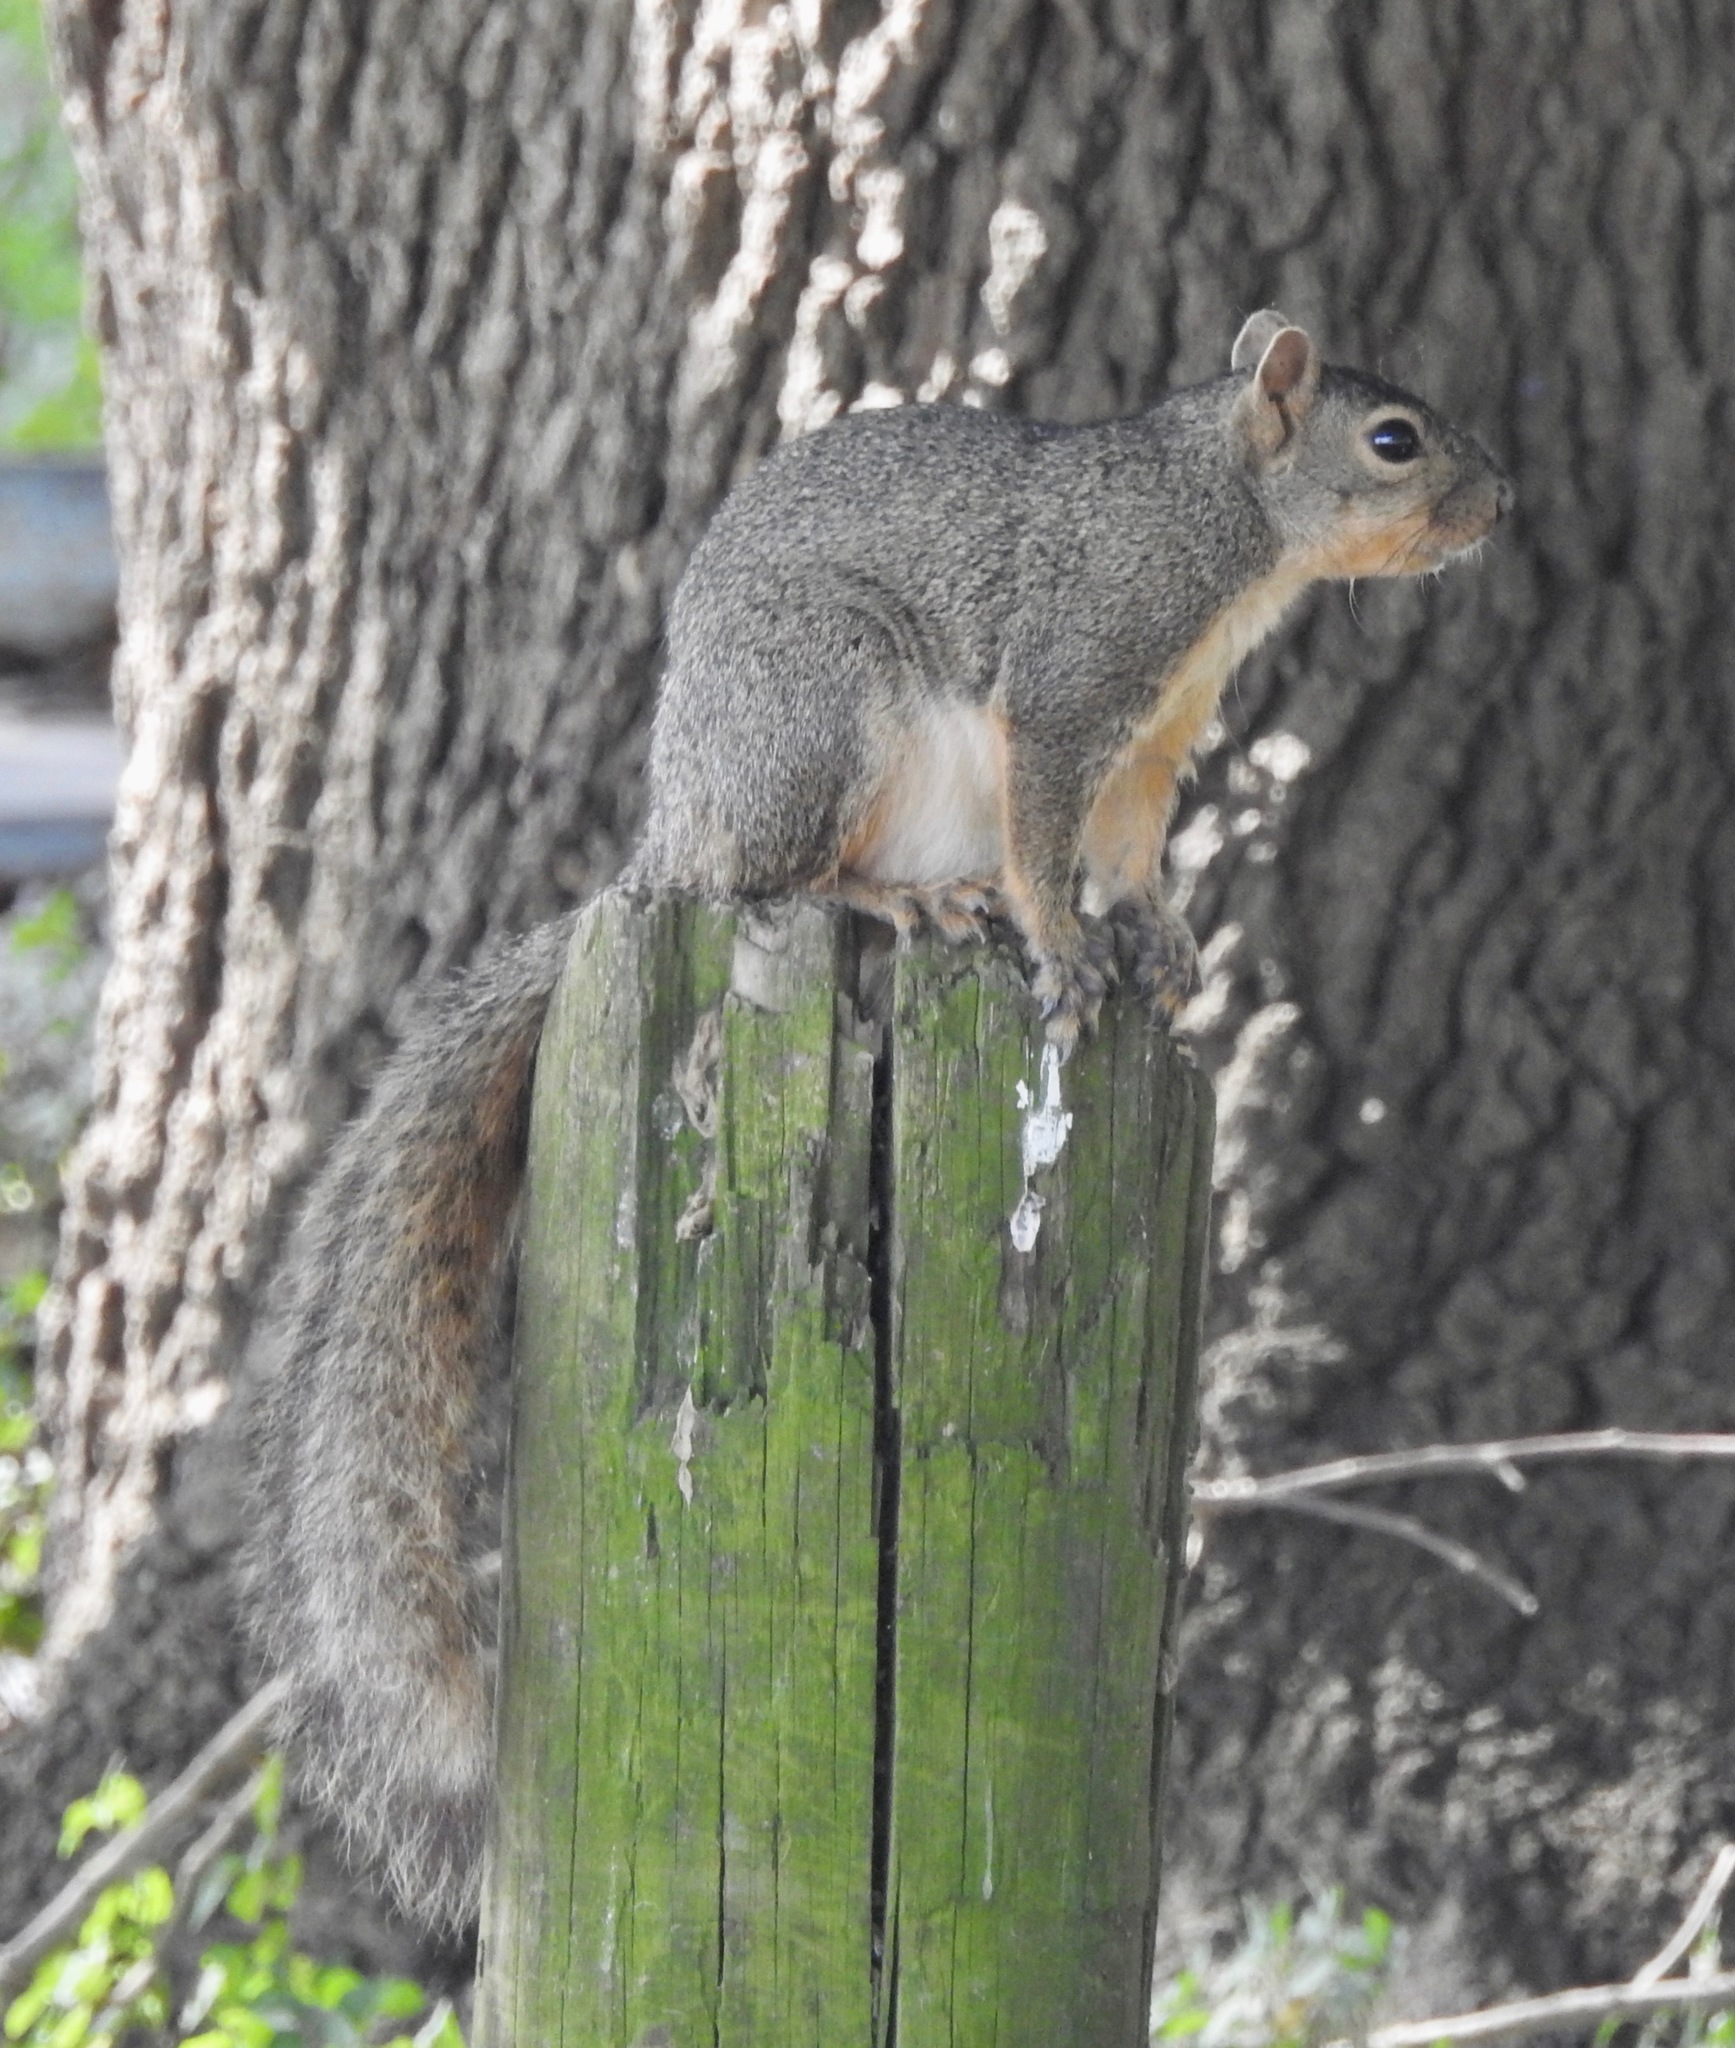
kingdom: Animalia
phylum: Chordata
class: Mammalia
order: Rodentia
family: Sciuridae
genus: Sciurus
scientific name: Sciurus niger
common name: Fox squirrel
